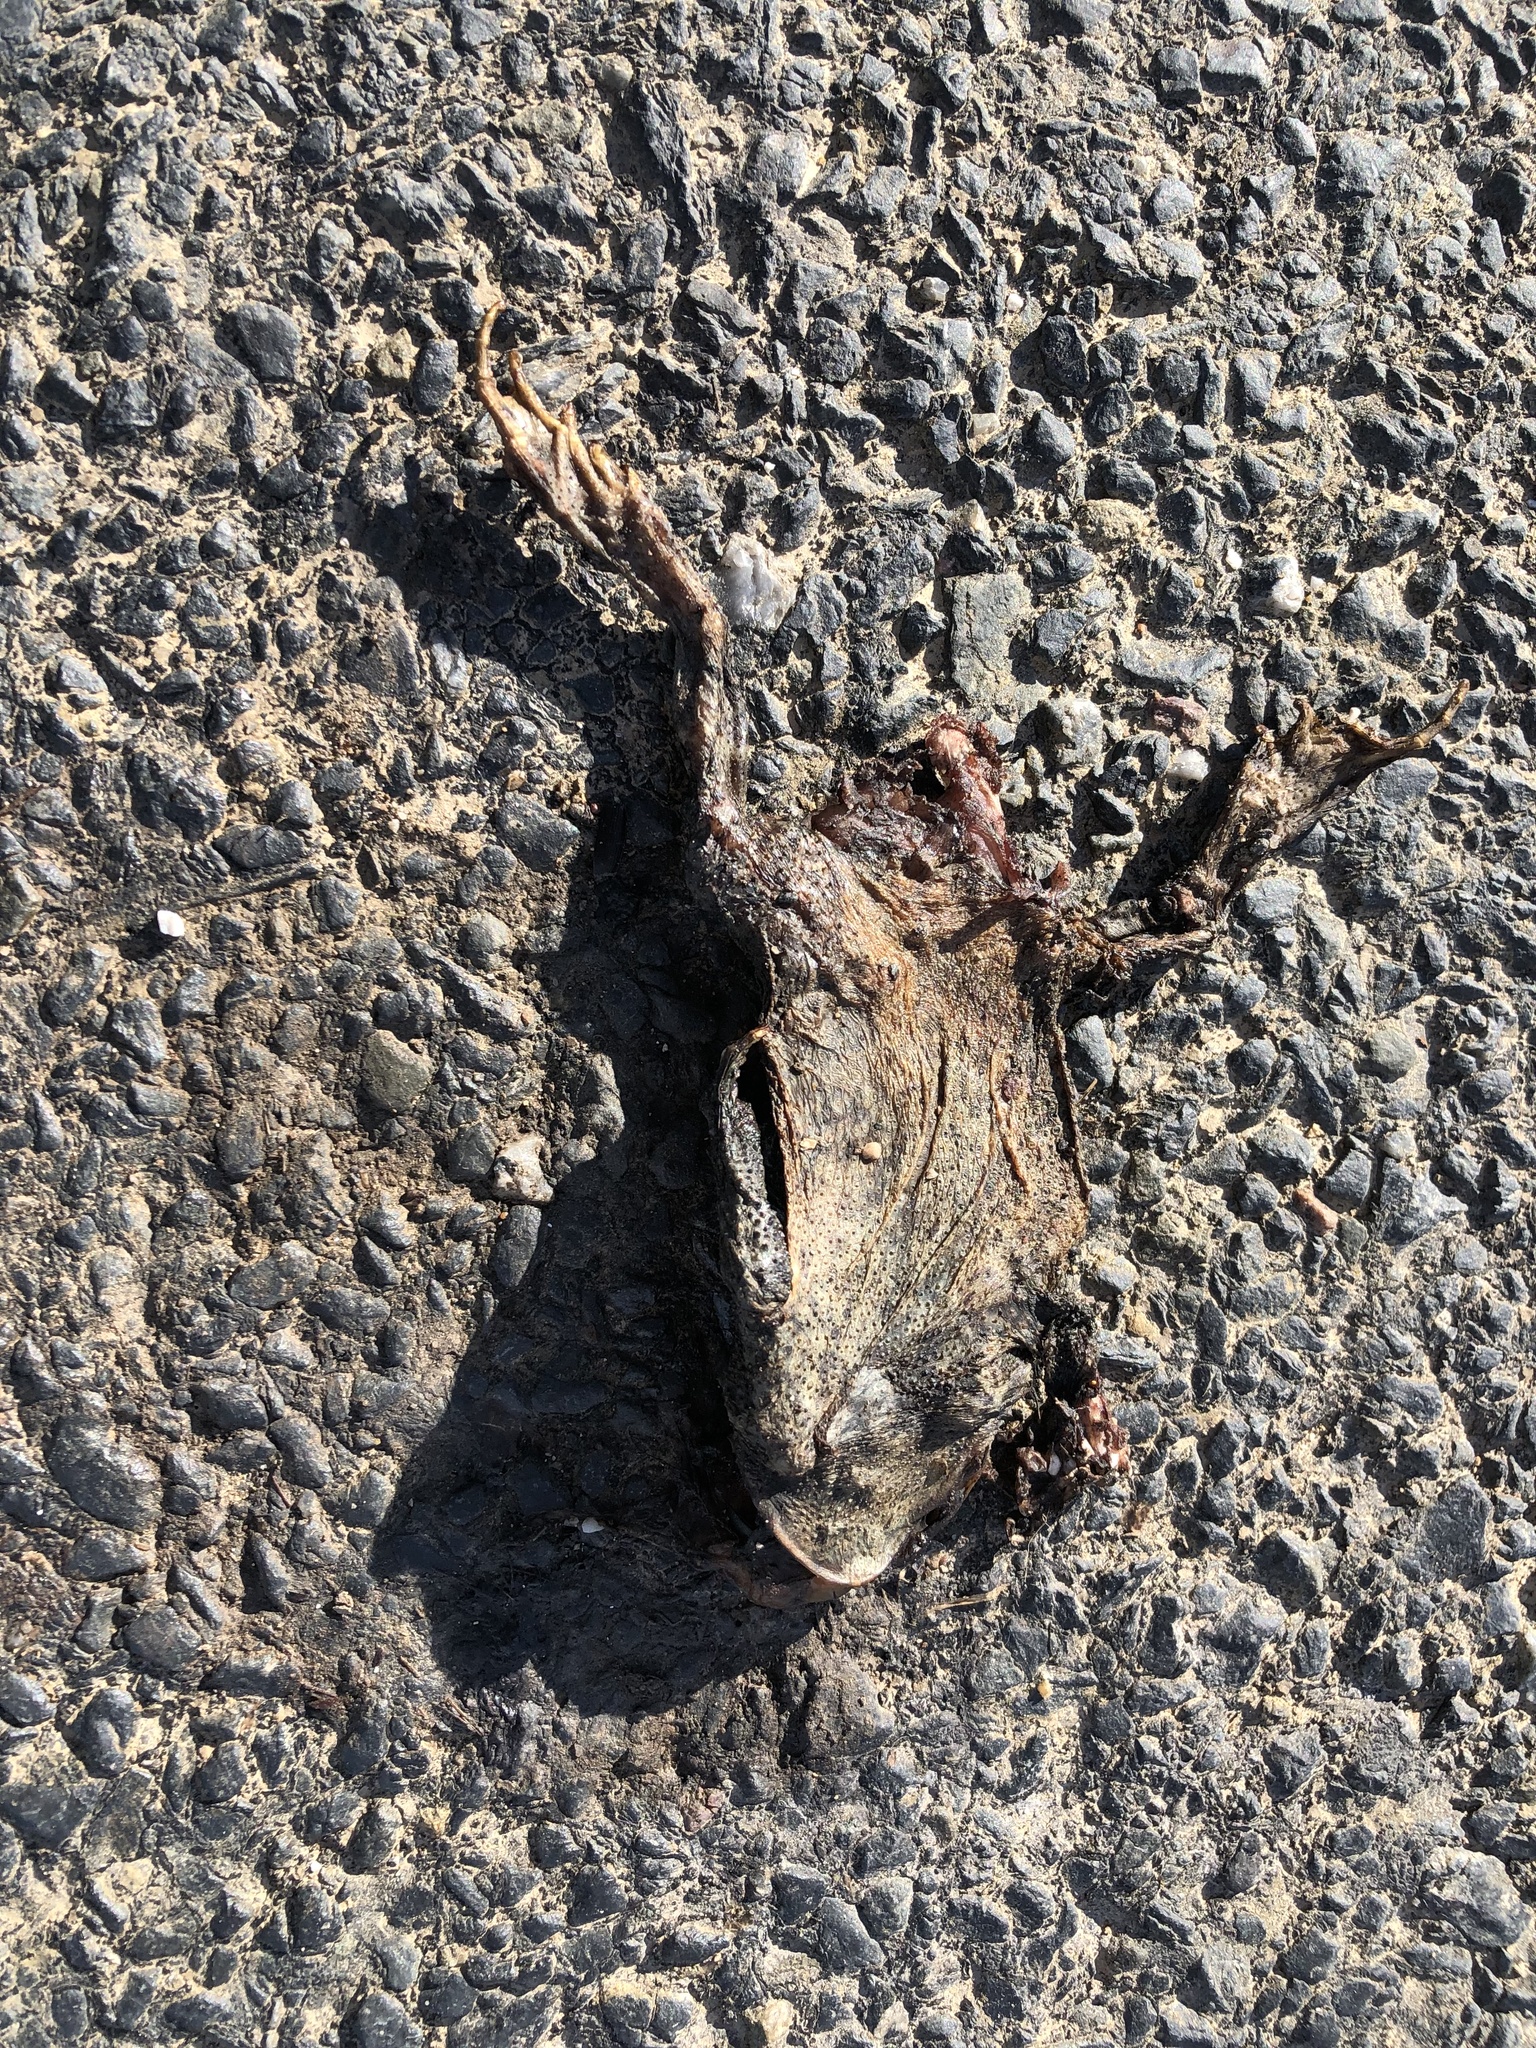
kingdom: Animalia
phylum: Chordata
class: Amphibia
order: Anura
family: Bufonidae
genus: Bufo
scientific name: Bufo bufo
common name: Common toad
